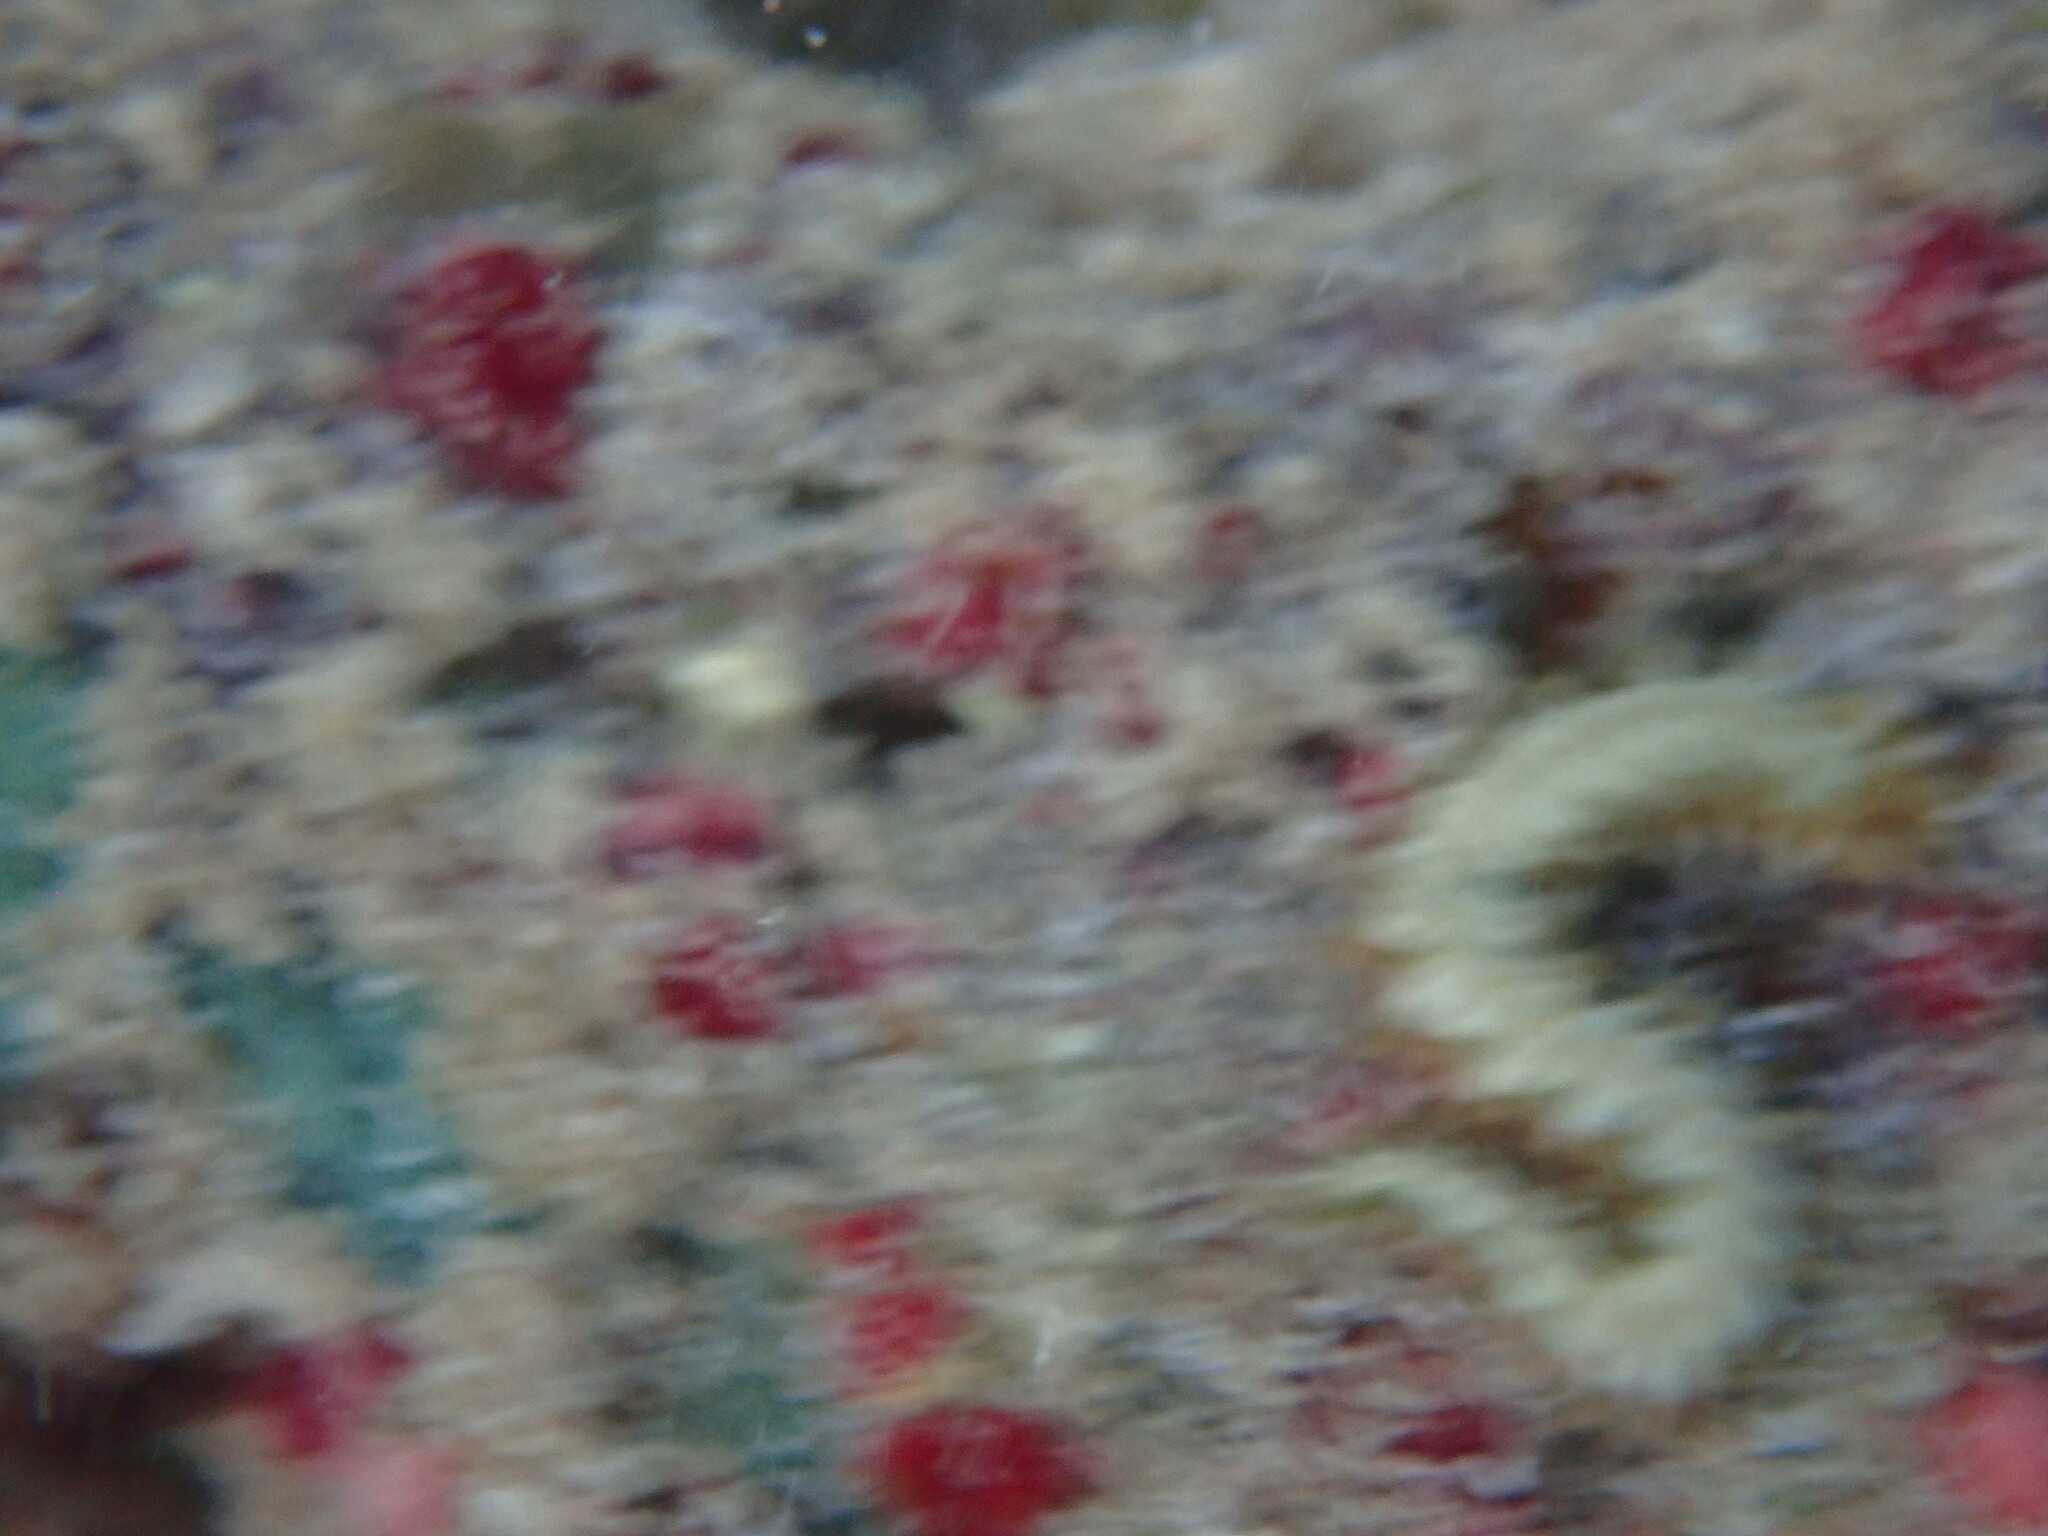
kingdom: Animalia
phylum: Annelida
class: Polychaeta
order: Amphinomida
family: Amphinomidae
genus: Hermodice
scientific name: Hermodice carunculata
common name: Bearded fireworm
